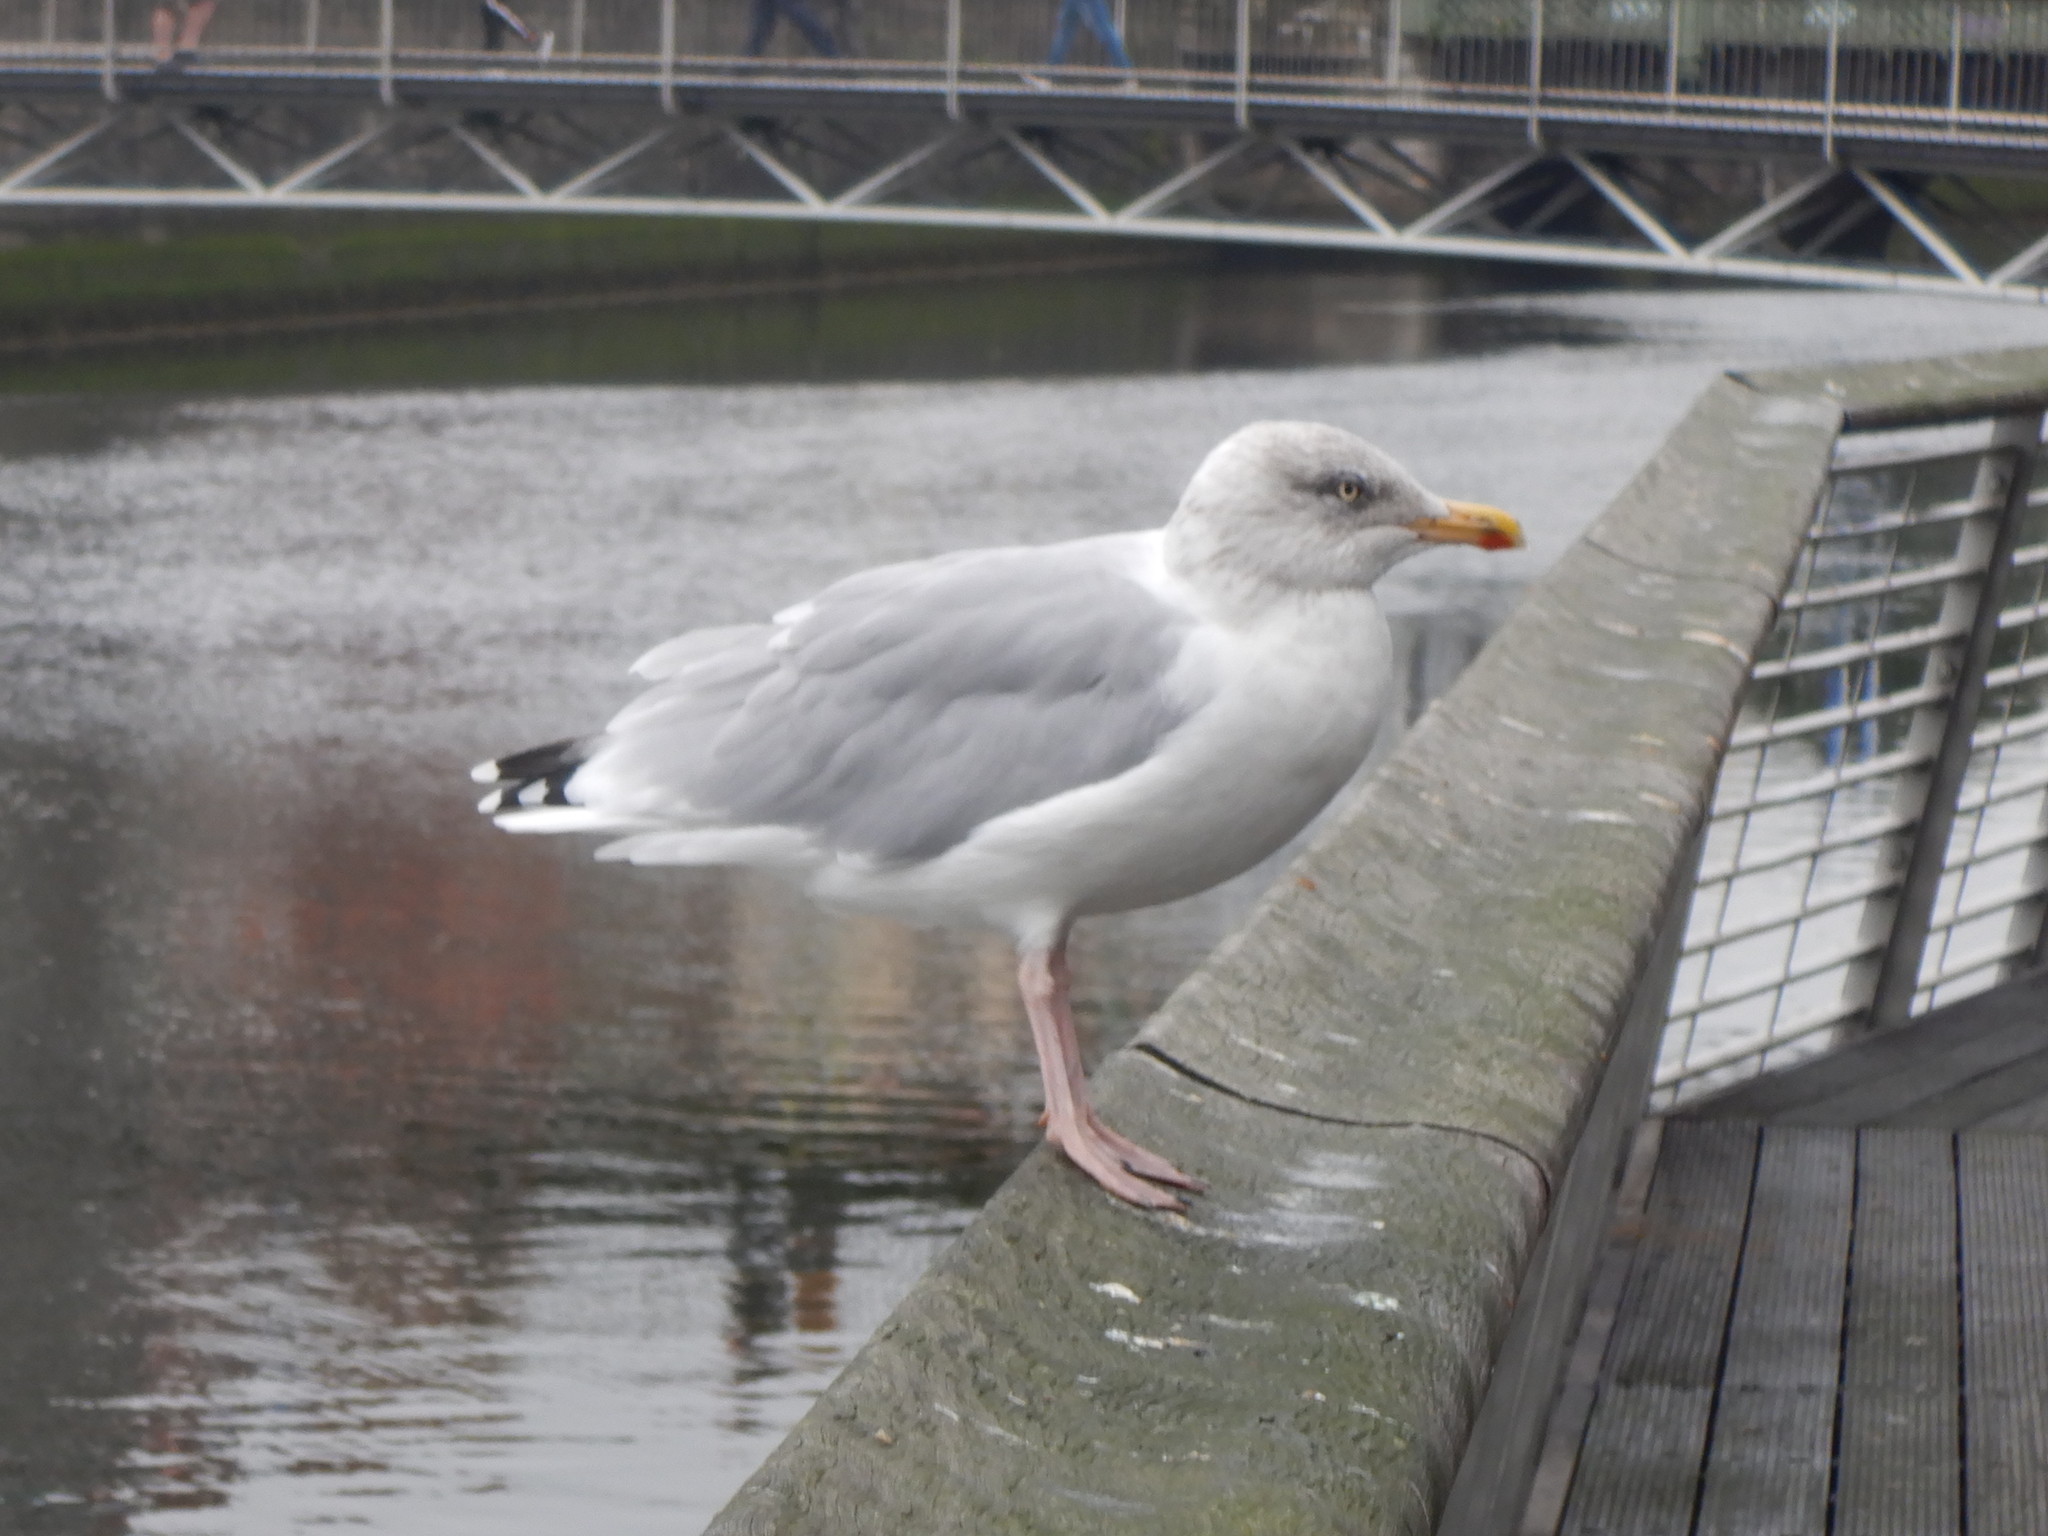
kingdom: Animalia
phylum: Chordata
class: Aves
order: Charadriiformes
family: Laridae
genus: Larus
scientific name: Larus argentatus
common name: Herring gull
